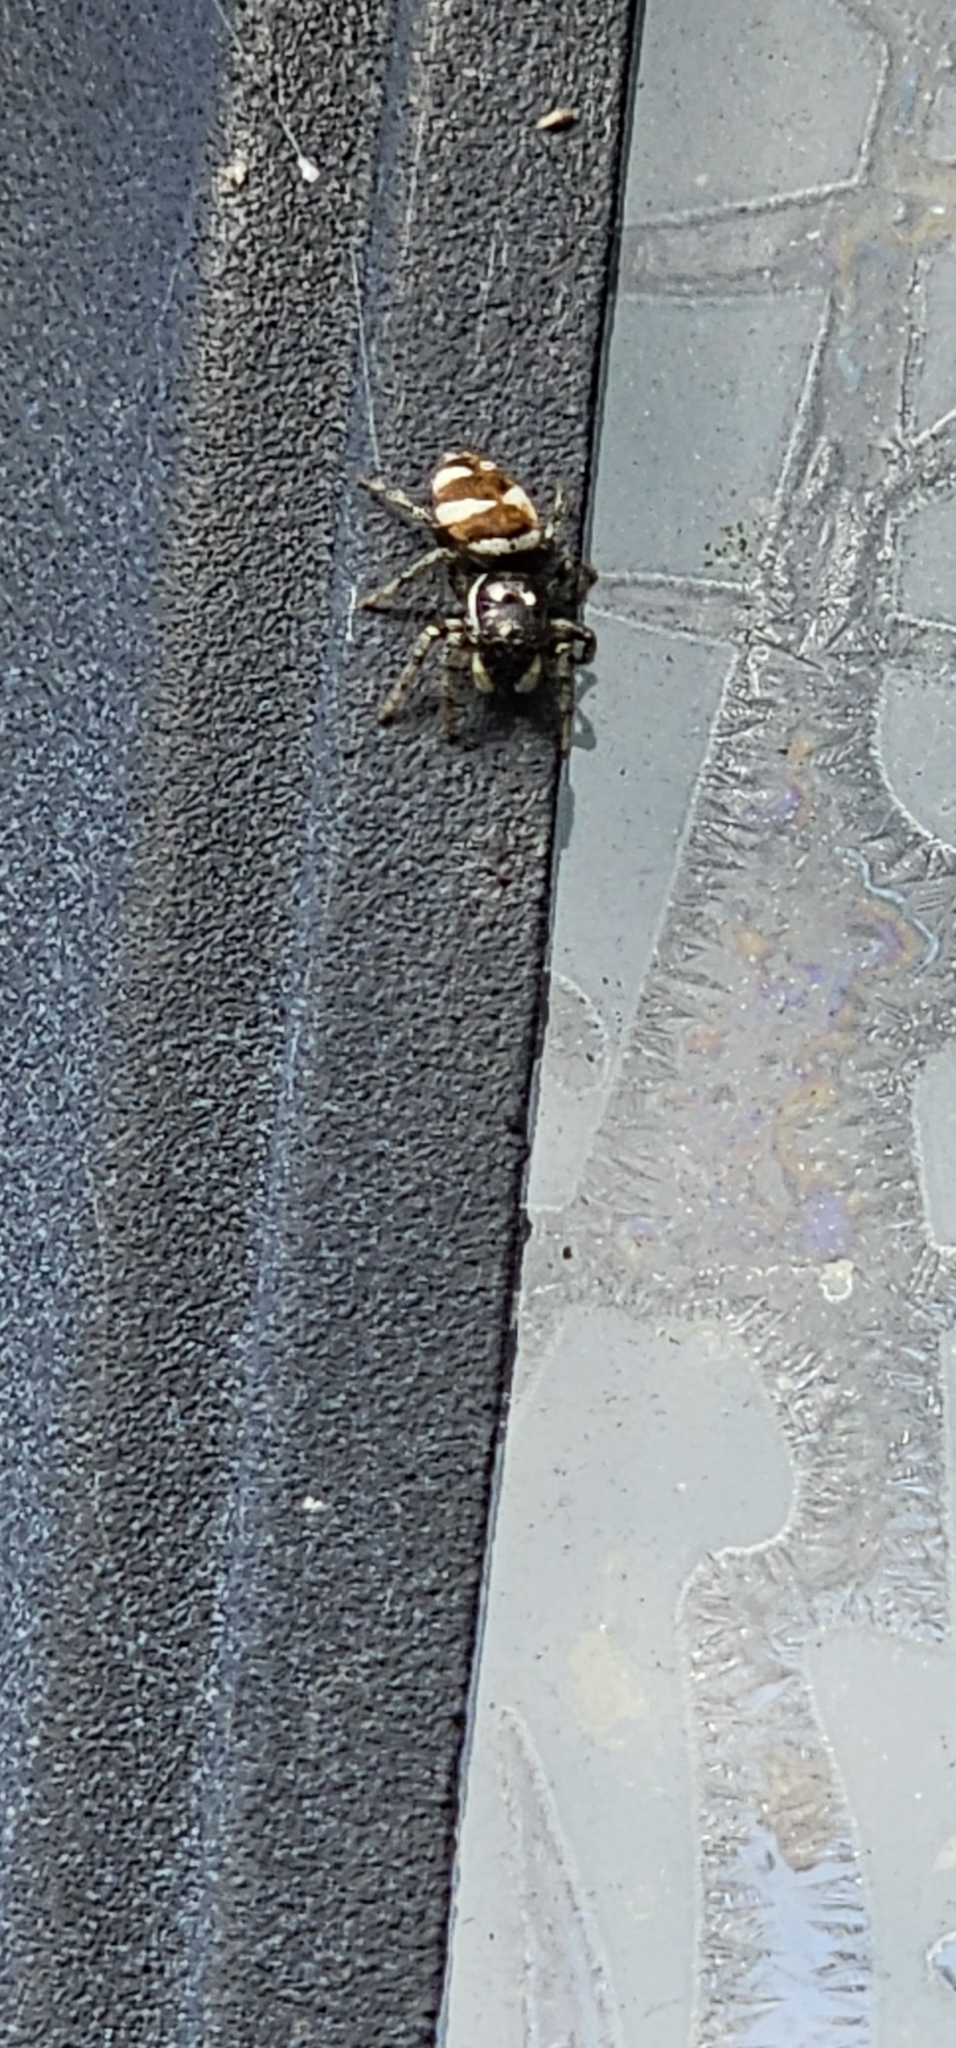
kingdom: Animalia
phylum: Arthropoda
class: Arachnida
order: Araneae
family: Salticidae
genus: Salticus
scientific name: Salticus scenicus
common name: Zebra jumper
